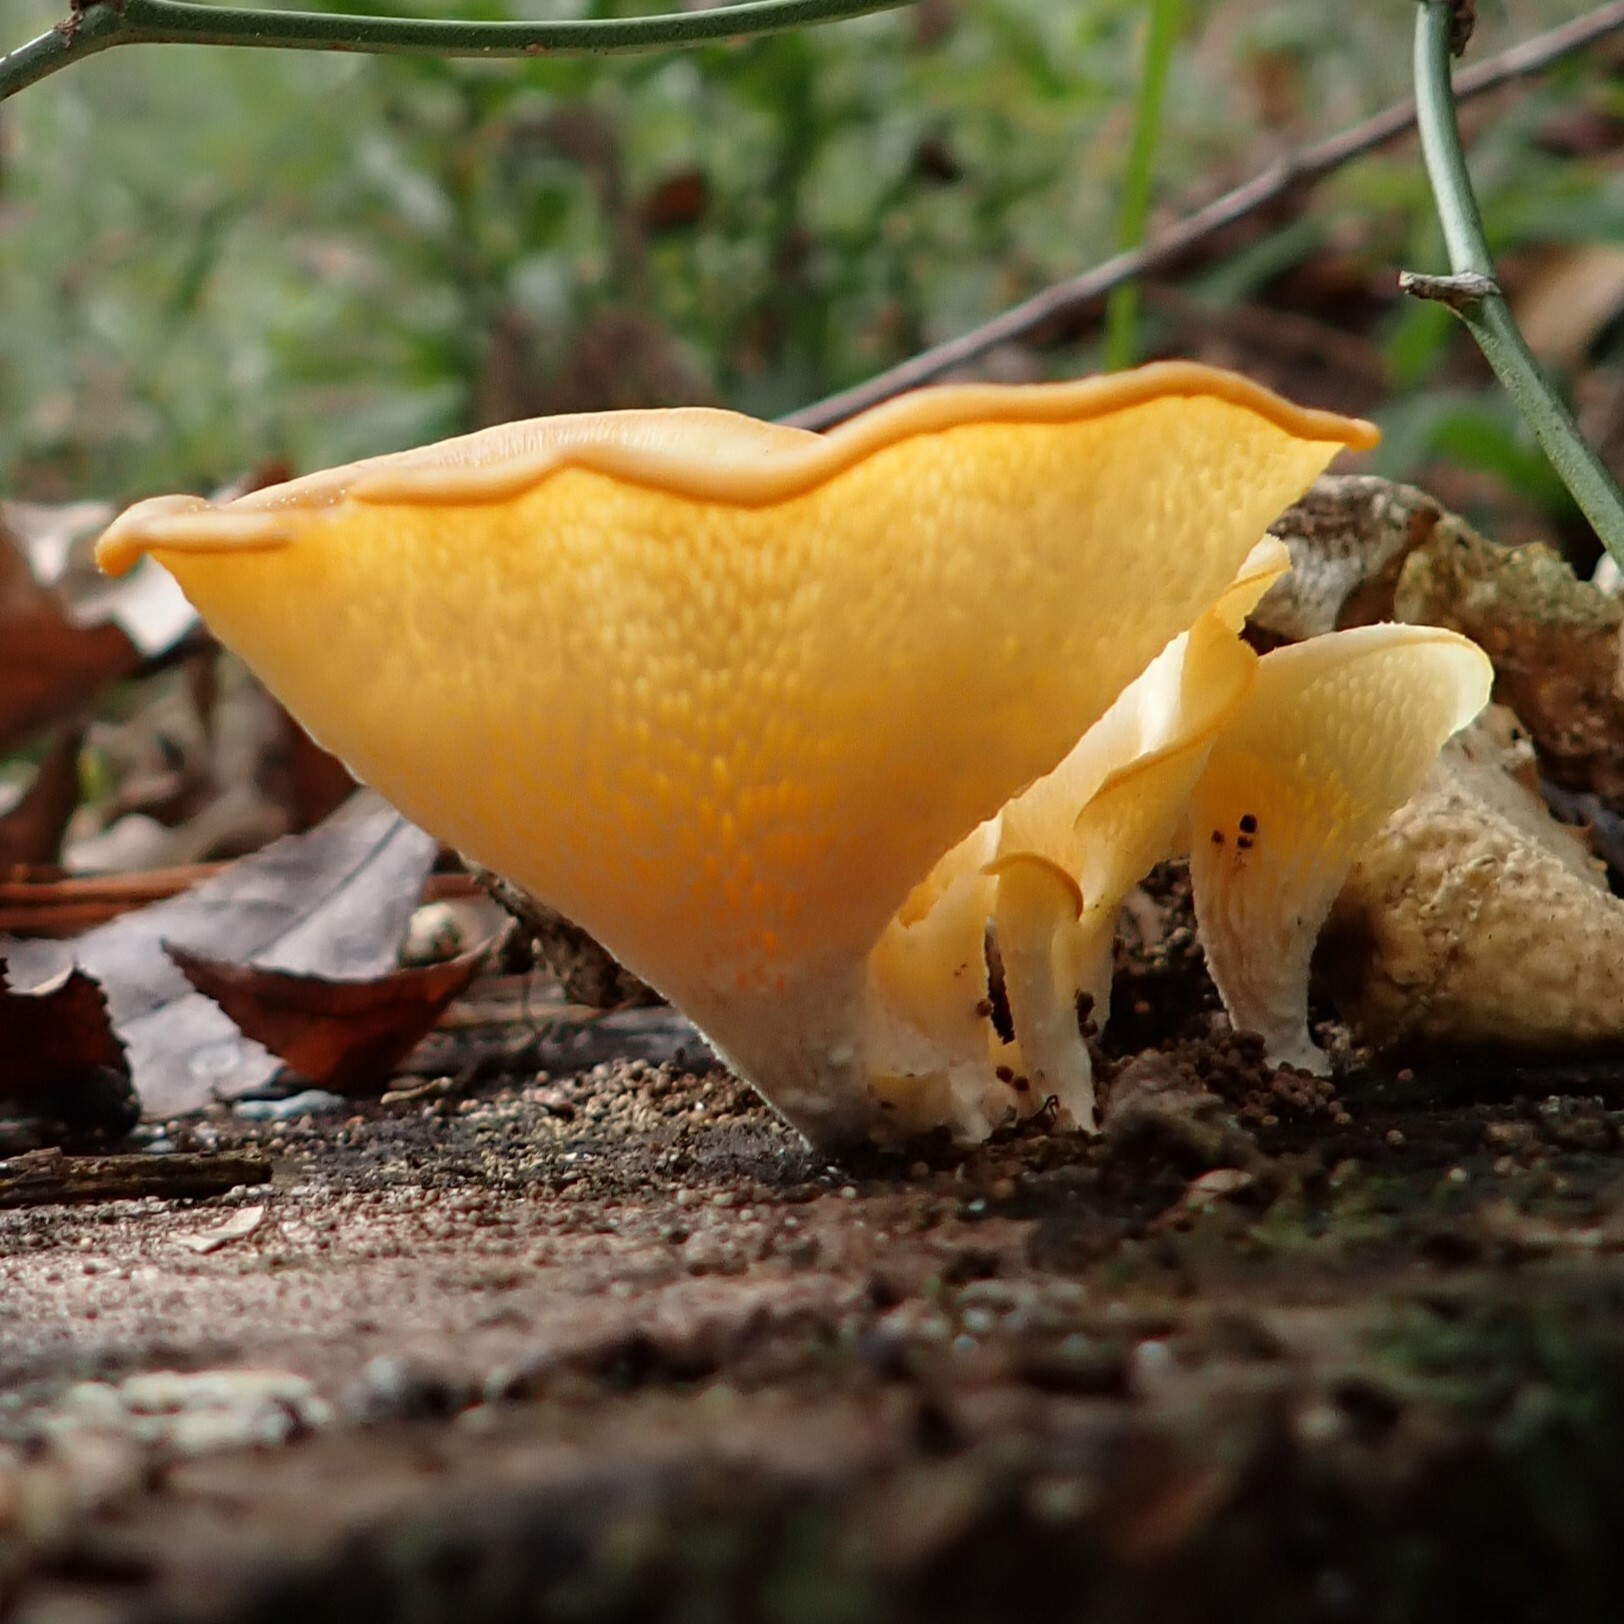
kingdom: Fungi
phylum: Basidiomycota
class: Agaricomycetes
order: Polyporales
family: Polyporaceae
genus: Favolus
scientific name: Favolus tenuiculus
